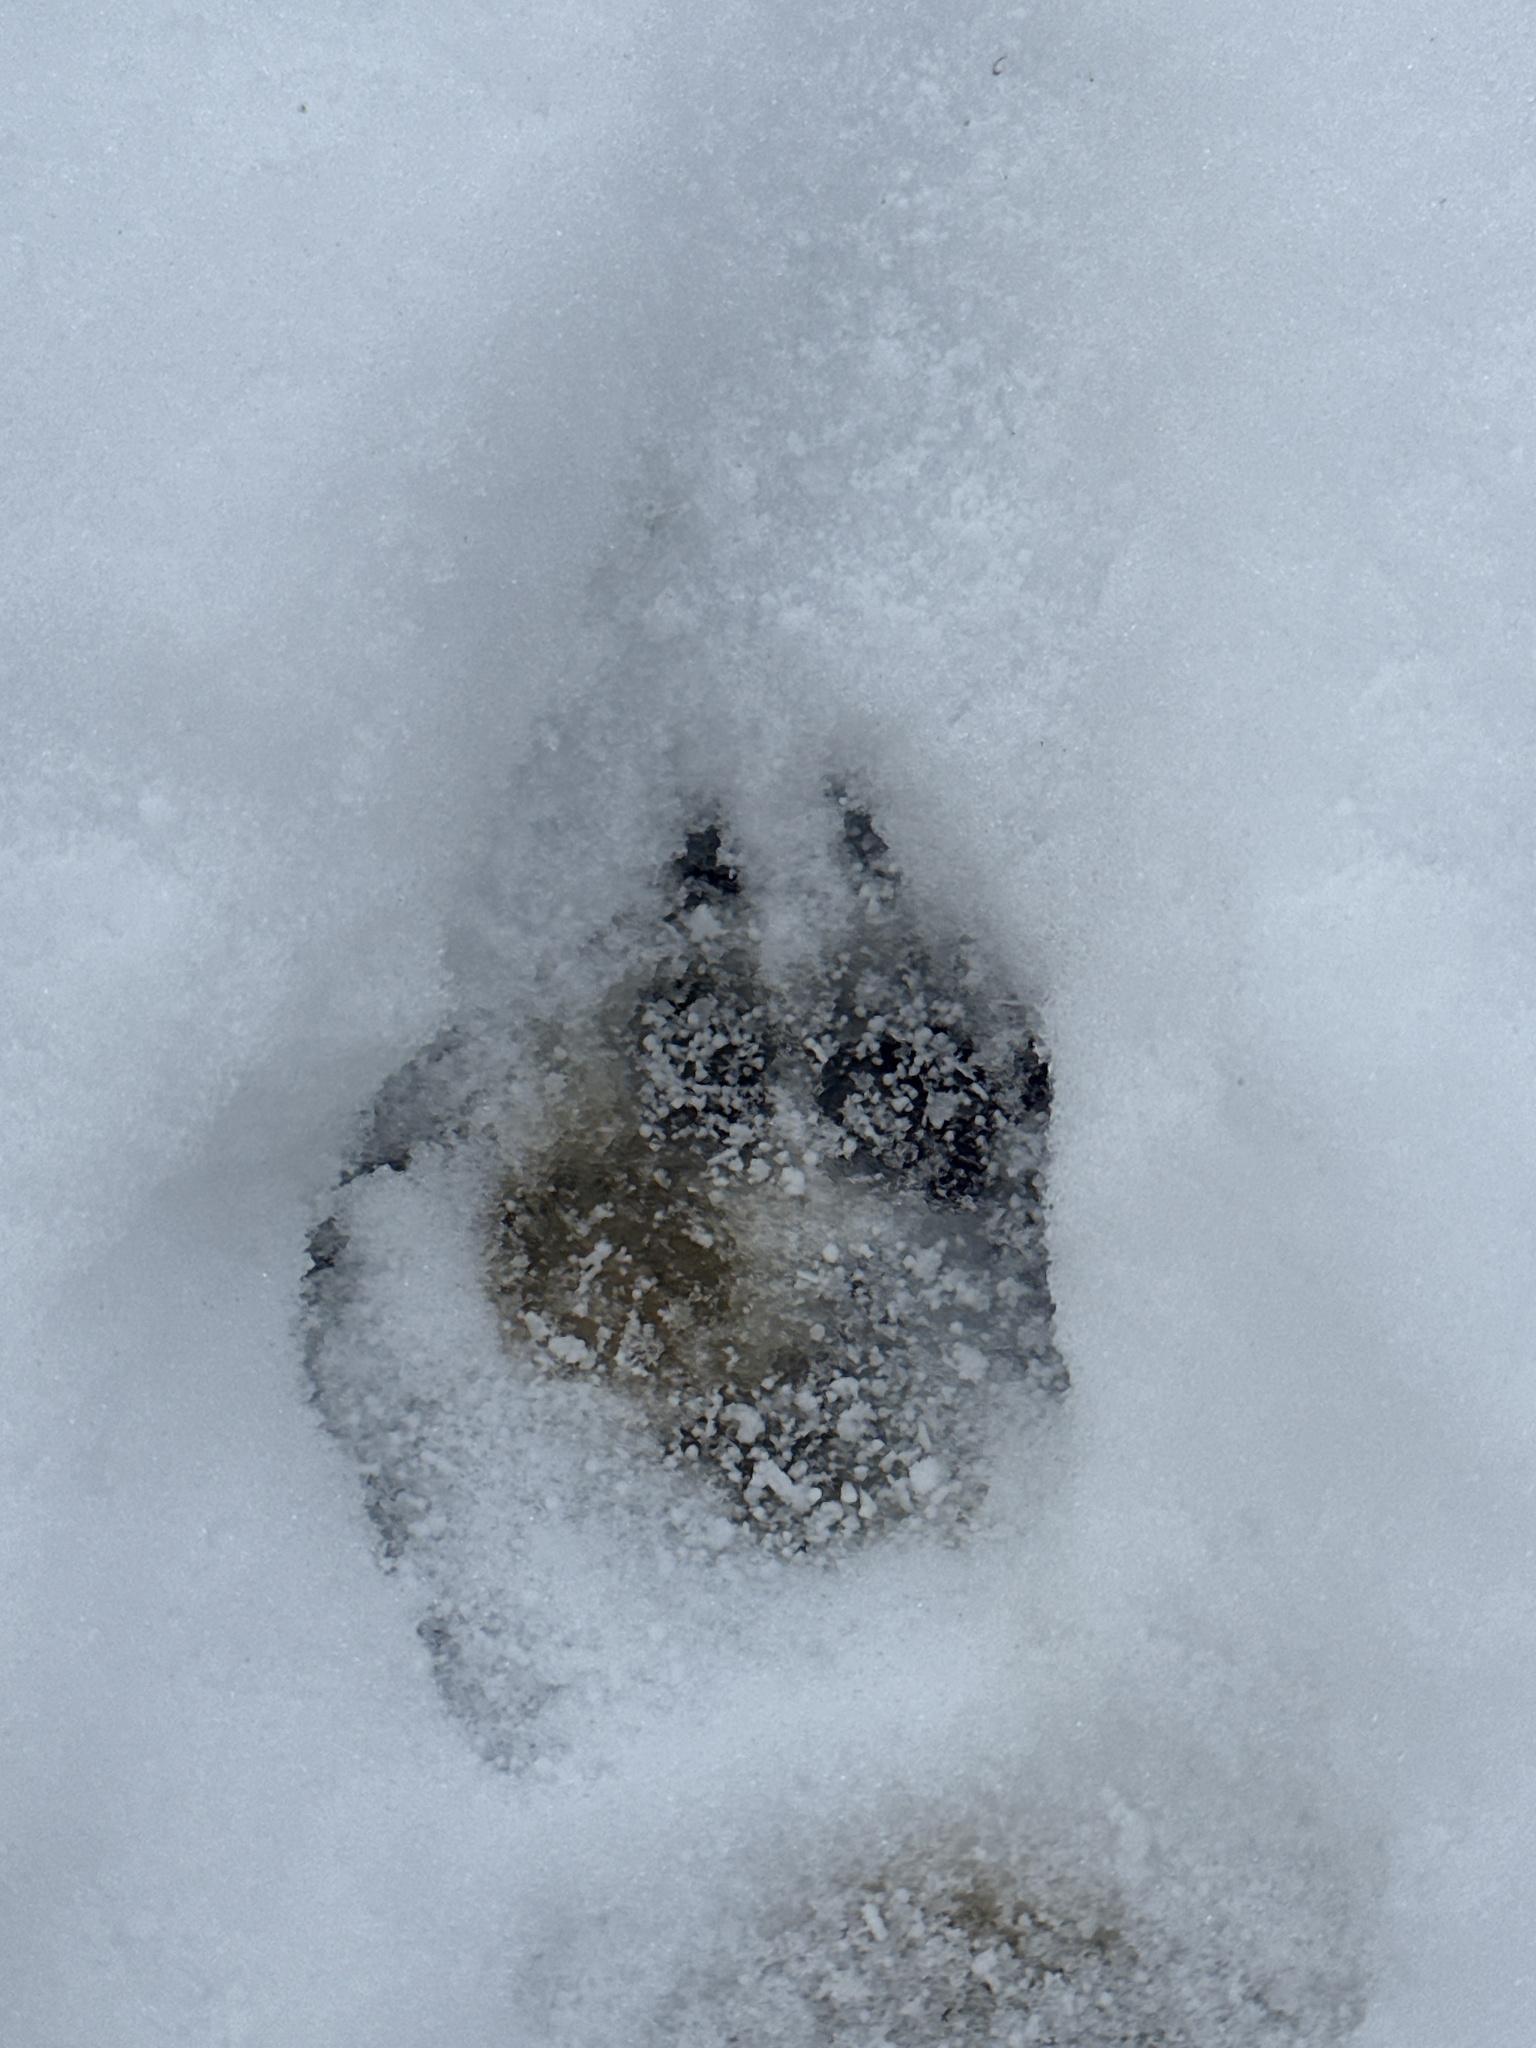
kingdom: Animalia
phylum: Chordata
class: Mammalia
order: Carnivora
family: Mustelidae
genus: Meles
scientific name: Meles meles
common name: Eurasian badger
